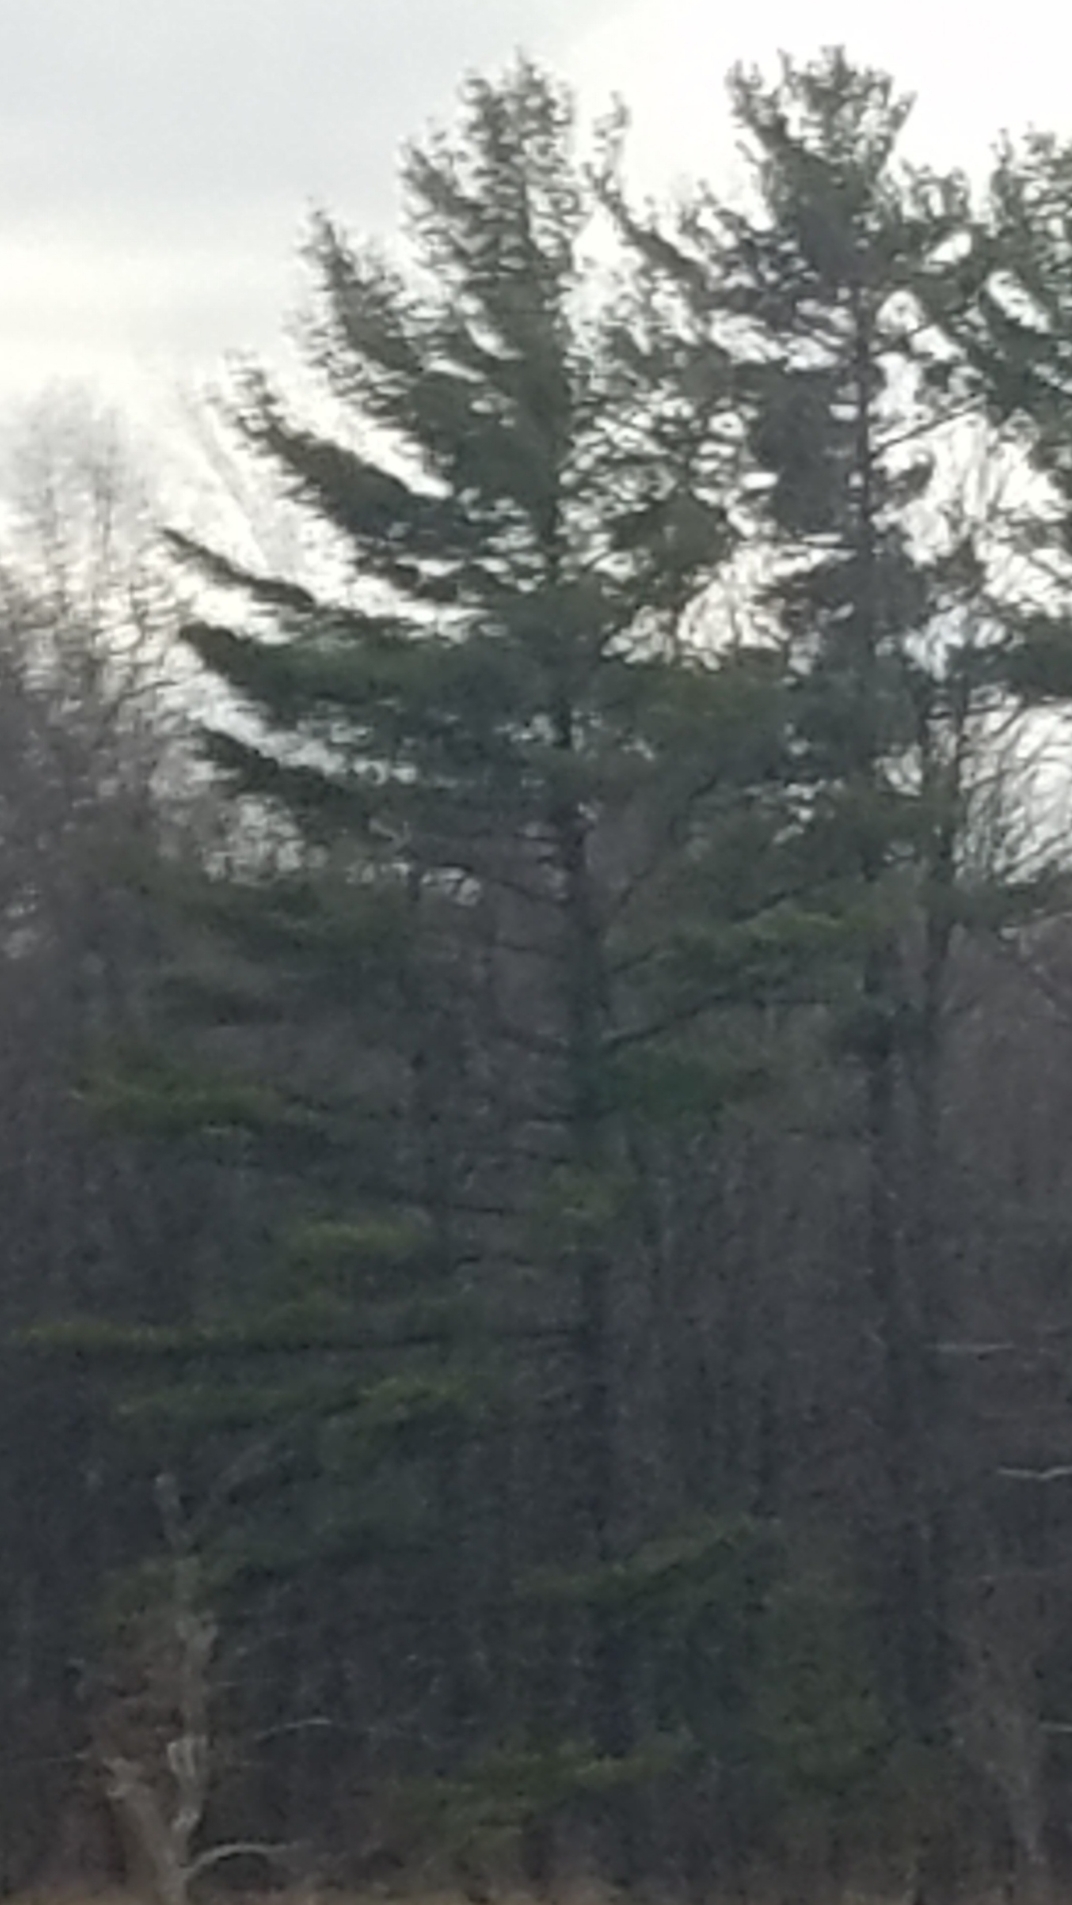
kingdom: Plantae
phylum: Tracheophyta
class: Pinopsida
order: Pinales
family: Pinaceae
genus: Pinus
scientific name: Pinus strobus
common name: Weymouth pine
